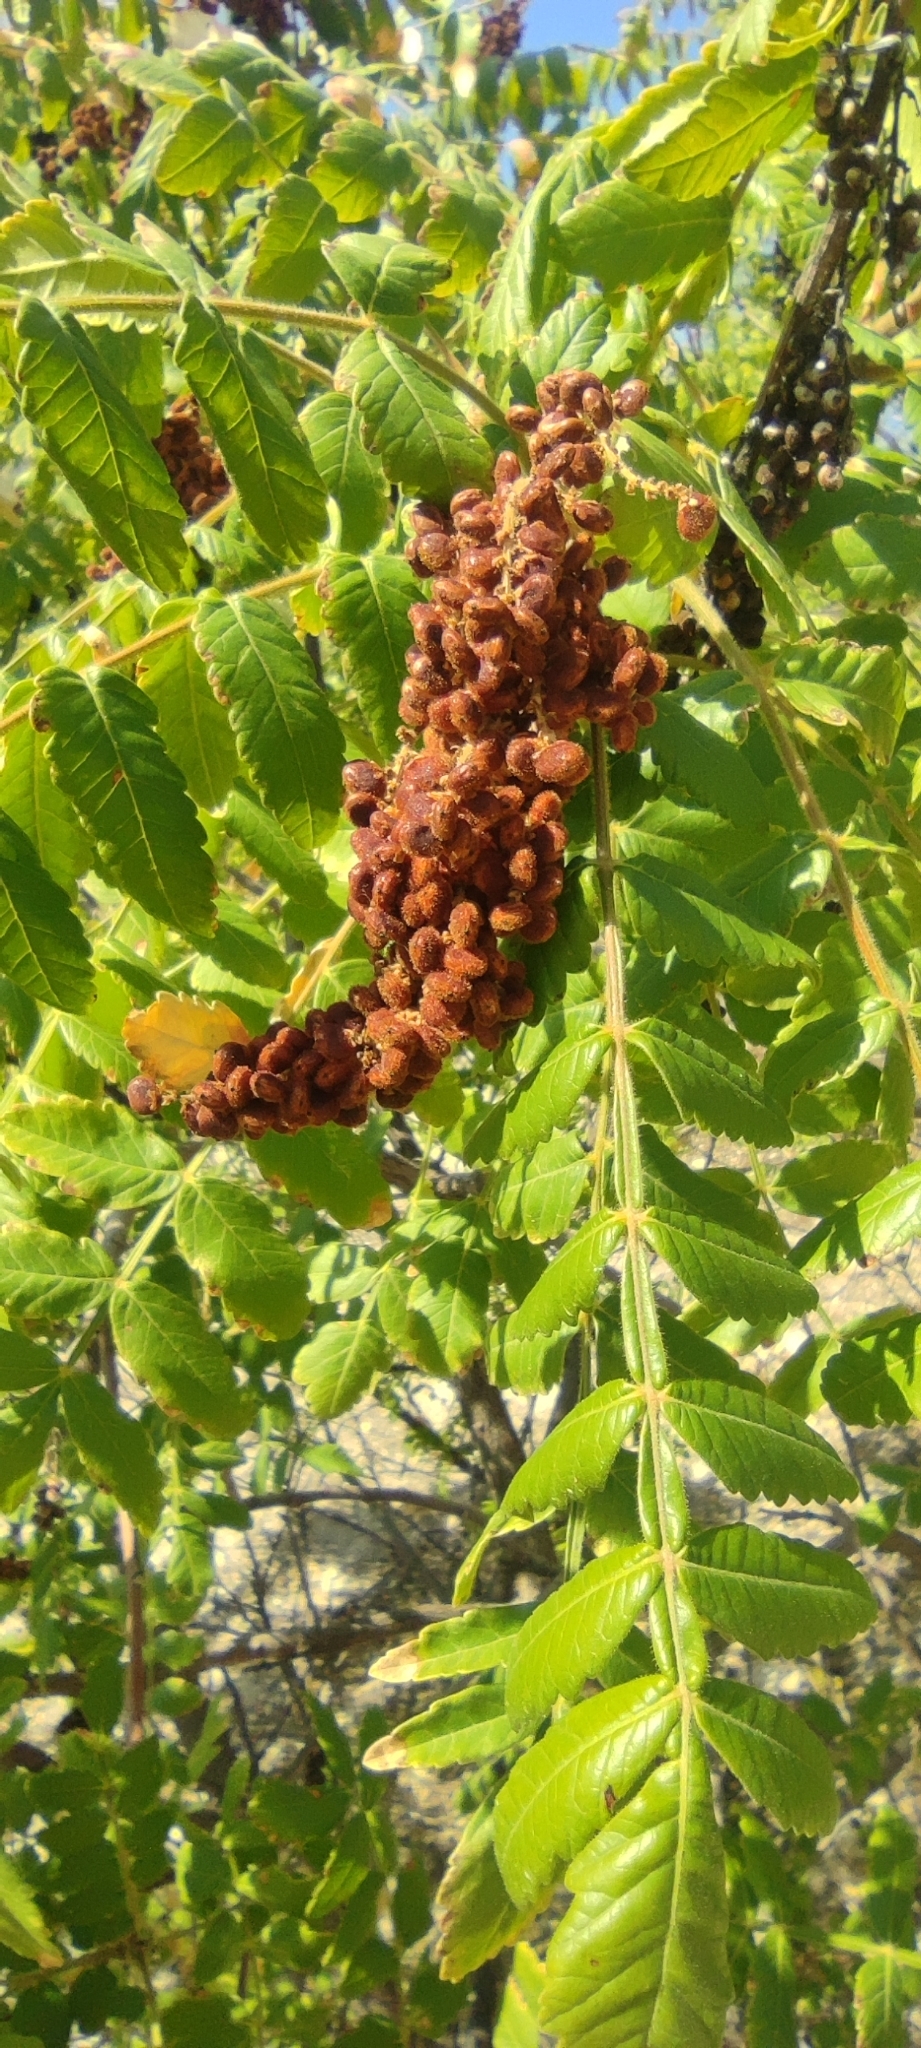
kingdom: Plantae
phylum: Tracheophyta
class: Magnoliopsida
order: Sapindales
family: Anacardiaceae
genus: Rhus
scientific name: Rhus coriaria
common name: Tanner's sumach
